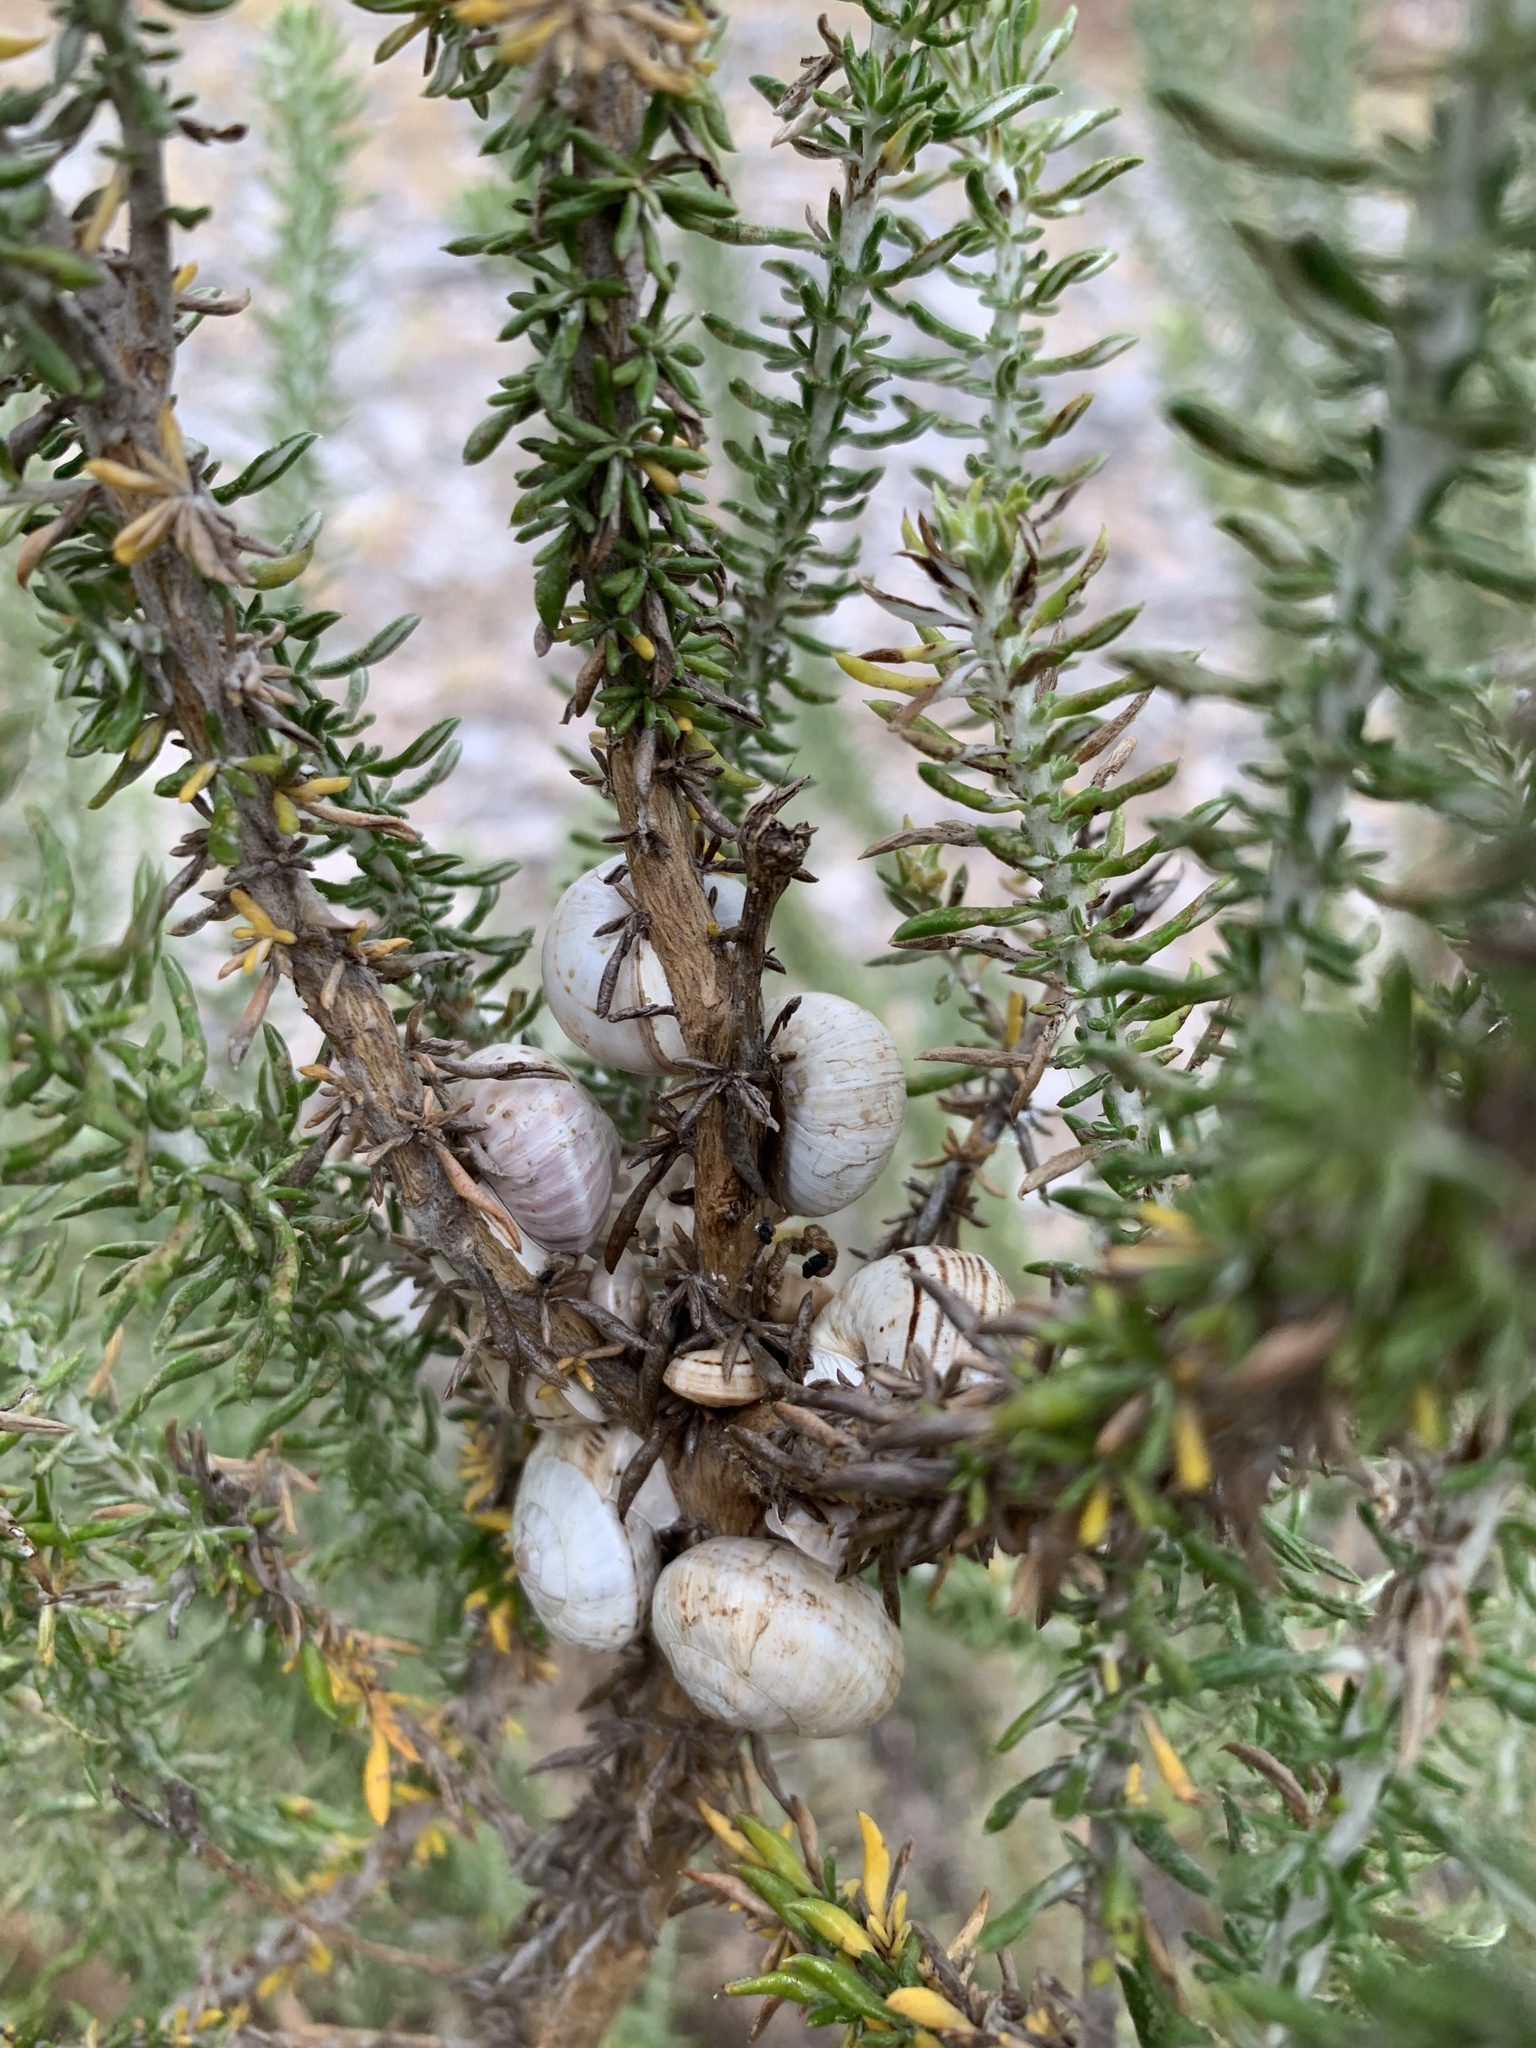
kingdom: Animalia
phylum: Mollusca
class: Gastropoda
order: Stylommatophora
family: Helicidae
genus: Theba
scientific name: Theba pisana
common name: White snail
